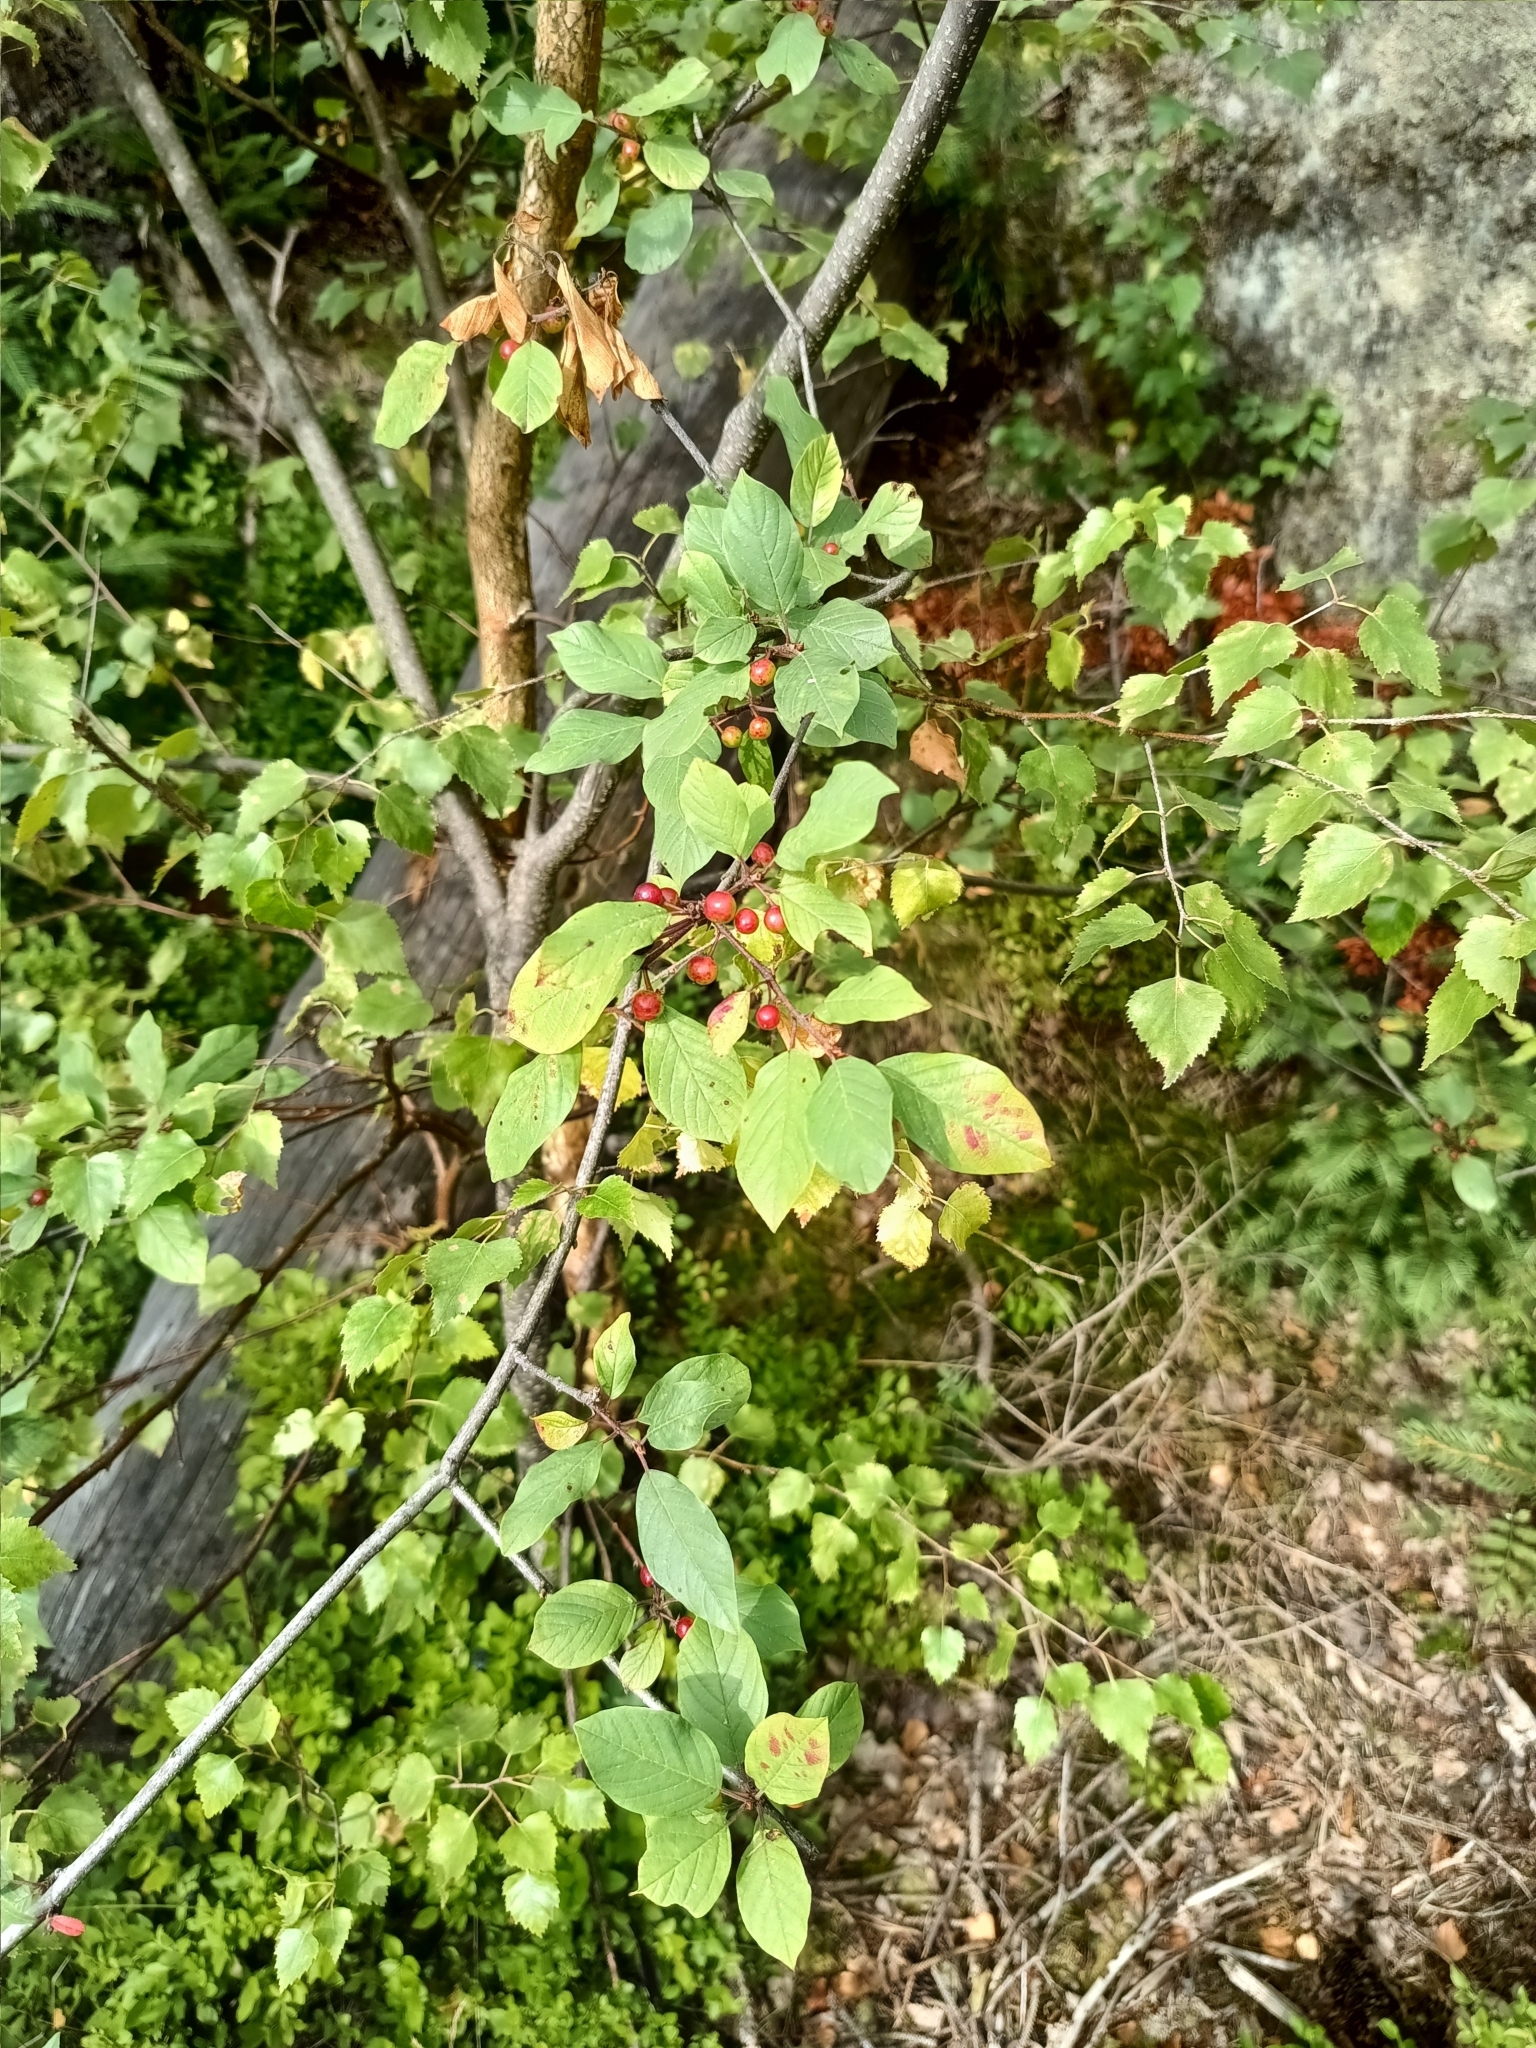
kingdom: Plantae
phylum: Tracheophyta
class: Magnoliopsida
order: Rosales
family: Rhamnaceae
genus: Frangula
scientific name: Frangula alnus
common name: Alder buckthorn
